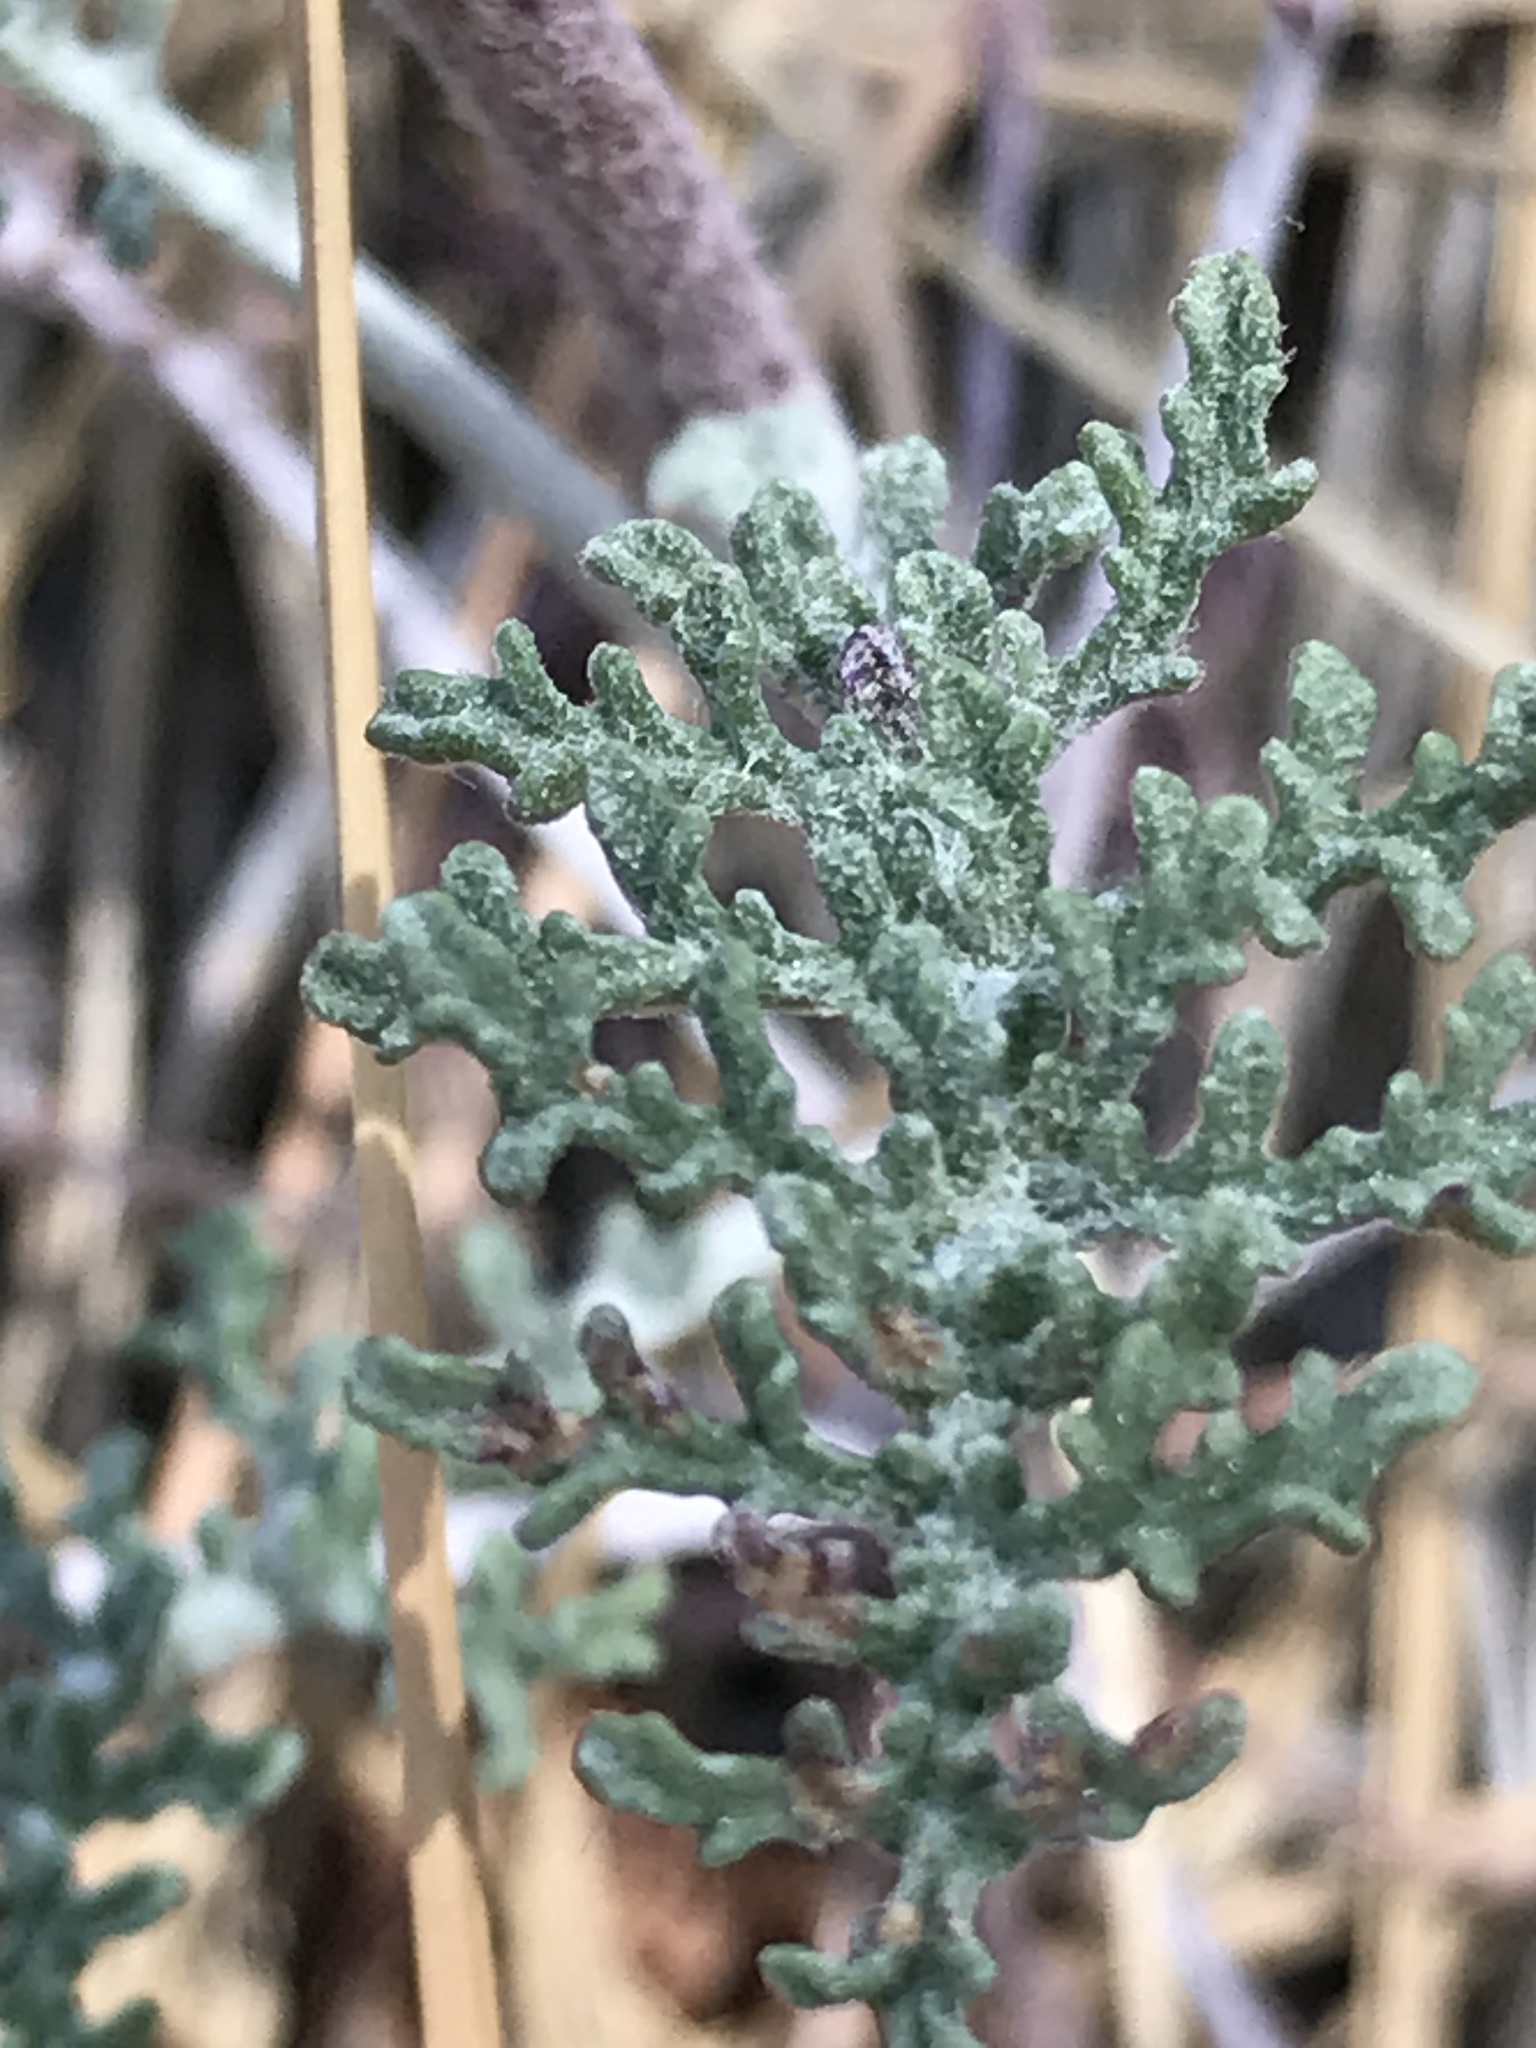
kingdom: Plantae
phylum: Tracheophyta
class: Magnoliopsida
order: Asterales
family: Asteraceae
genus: Chaenactis
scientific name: Chaenactis douglasii
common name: Hoary pincushion
